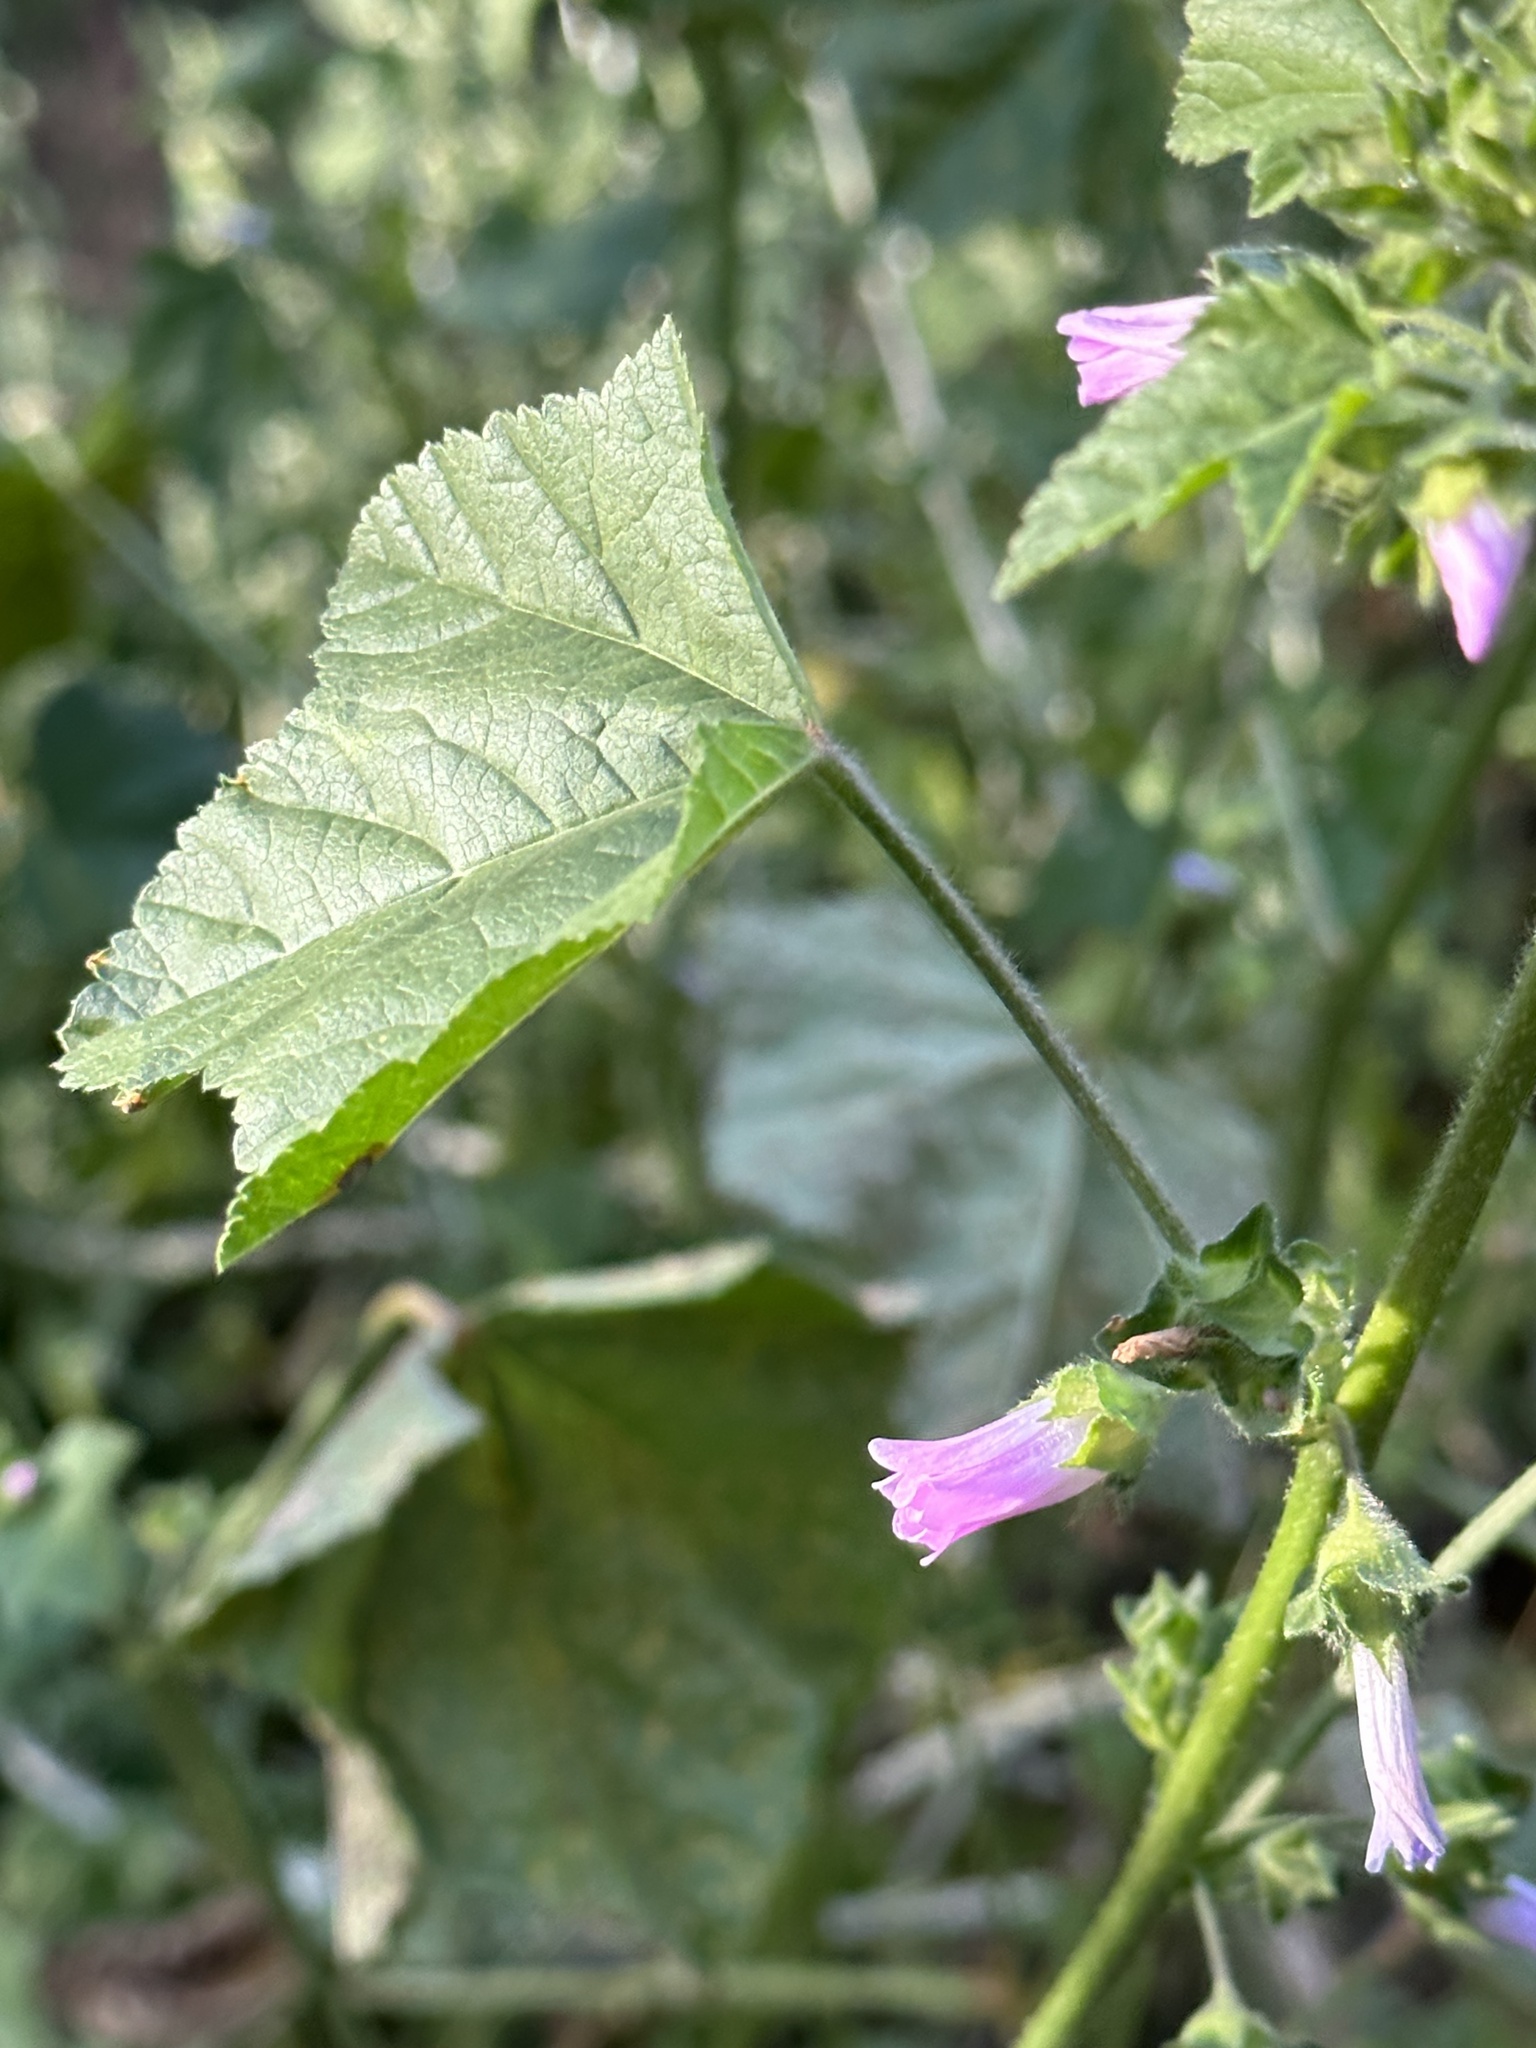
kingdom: Plantae
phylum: Tracheophyta
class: Magnoliopsida
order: Malvales
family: Malvaceae
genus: Malva
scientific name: Malva multiflora
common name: Cheeseweed
